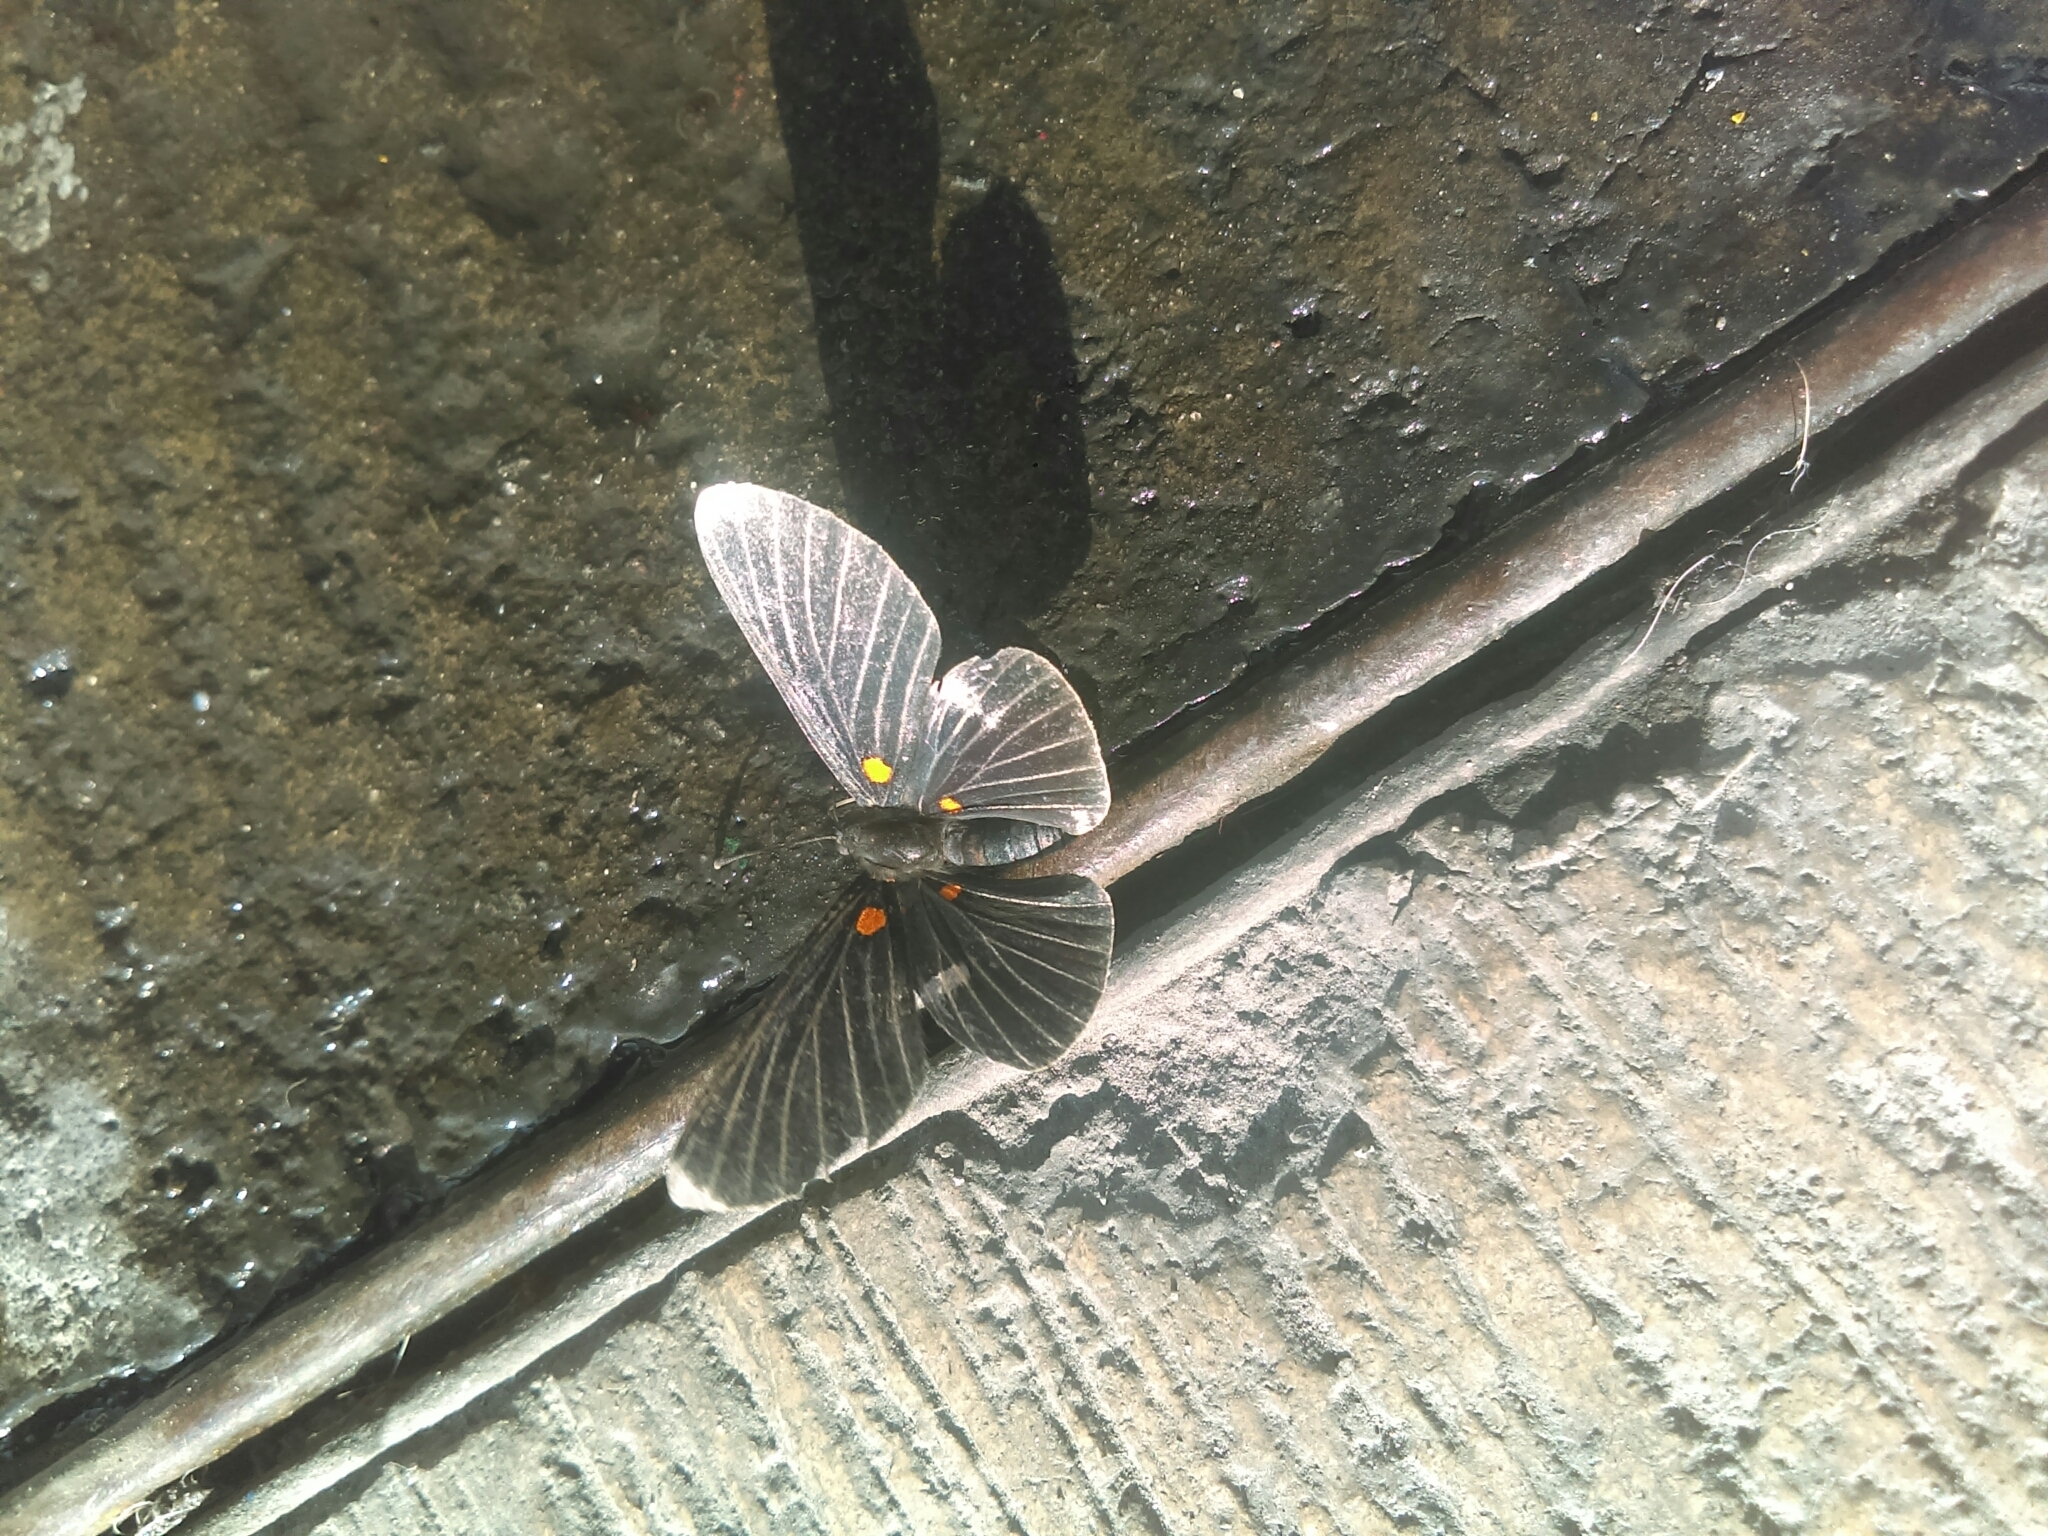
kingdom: Animalia
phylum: Arthropoda
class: Insecta
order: Lepidoptera
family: Lycaenidae
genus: Melanis
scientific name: Melanis
